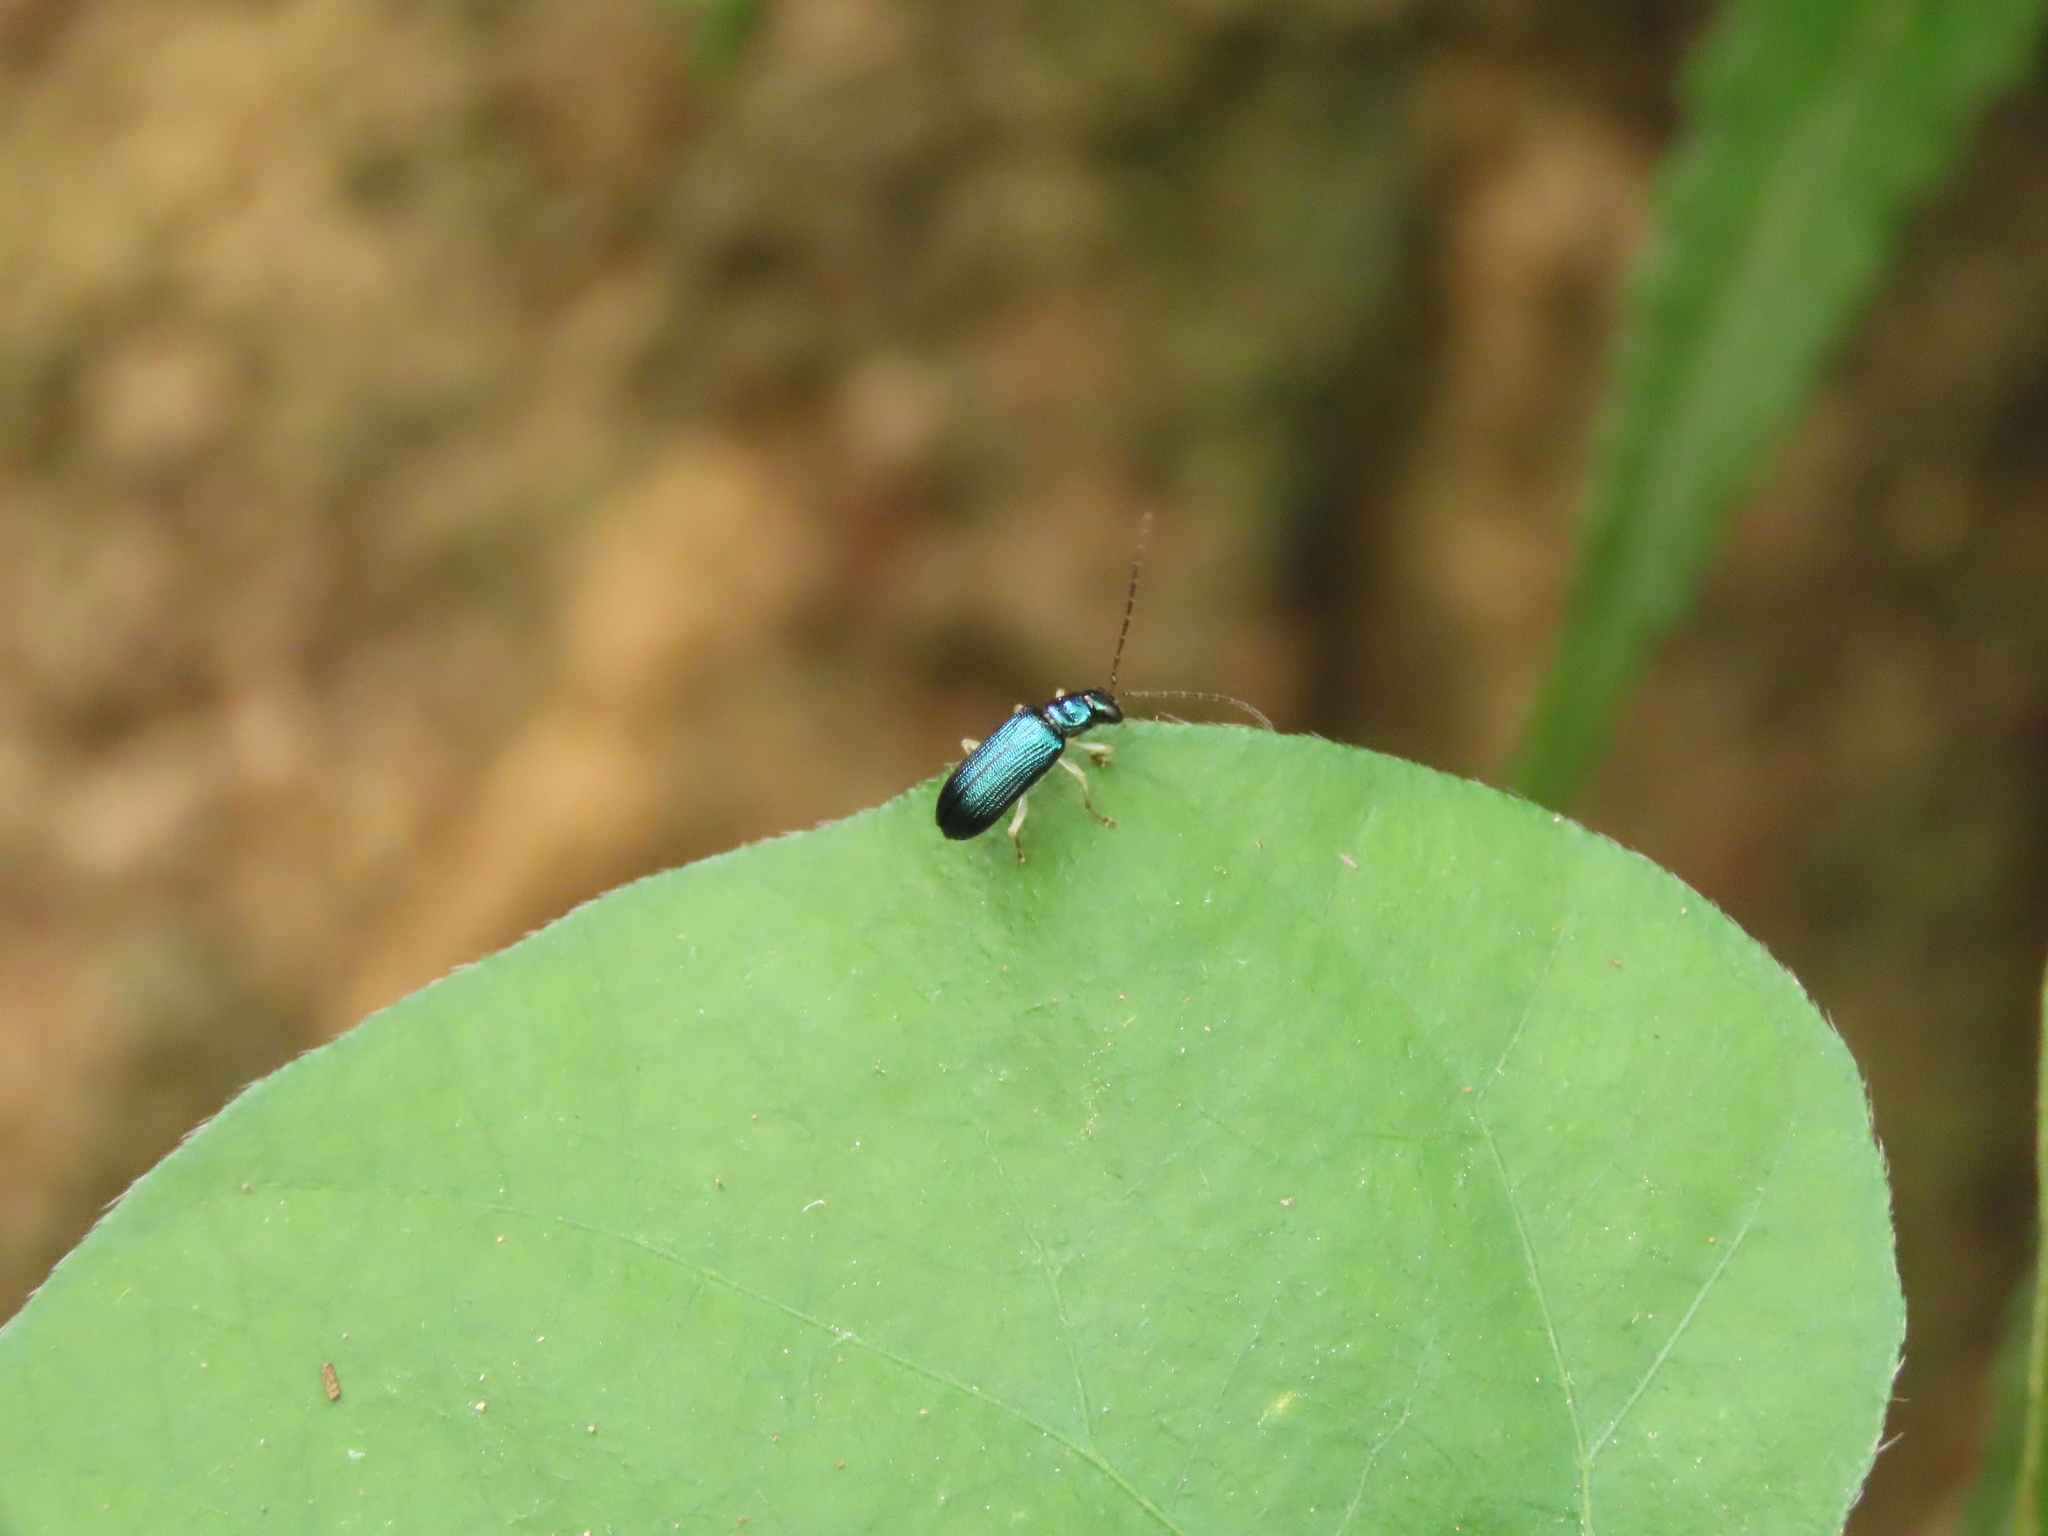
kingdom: Animalia
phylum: Arthropoda
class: Insecta
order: Coleoptera
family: Chrysomelidae
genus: Pseudotheopea
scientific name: Pseudotheopea sauteri
